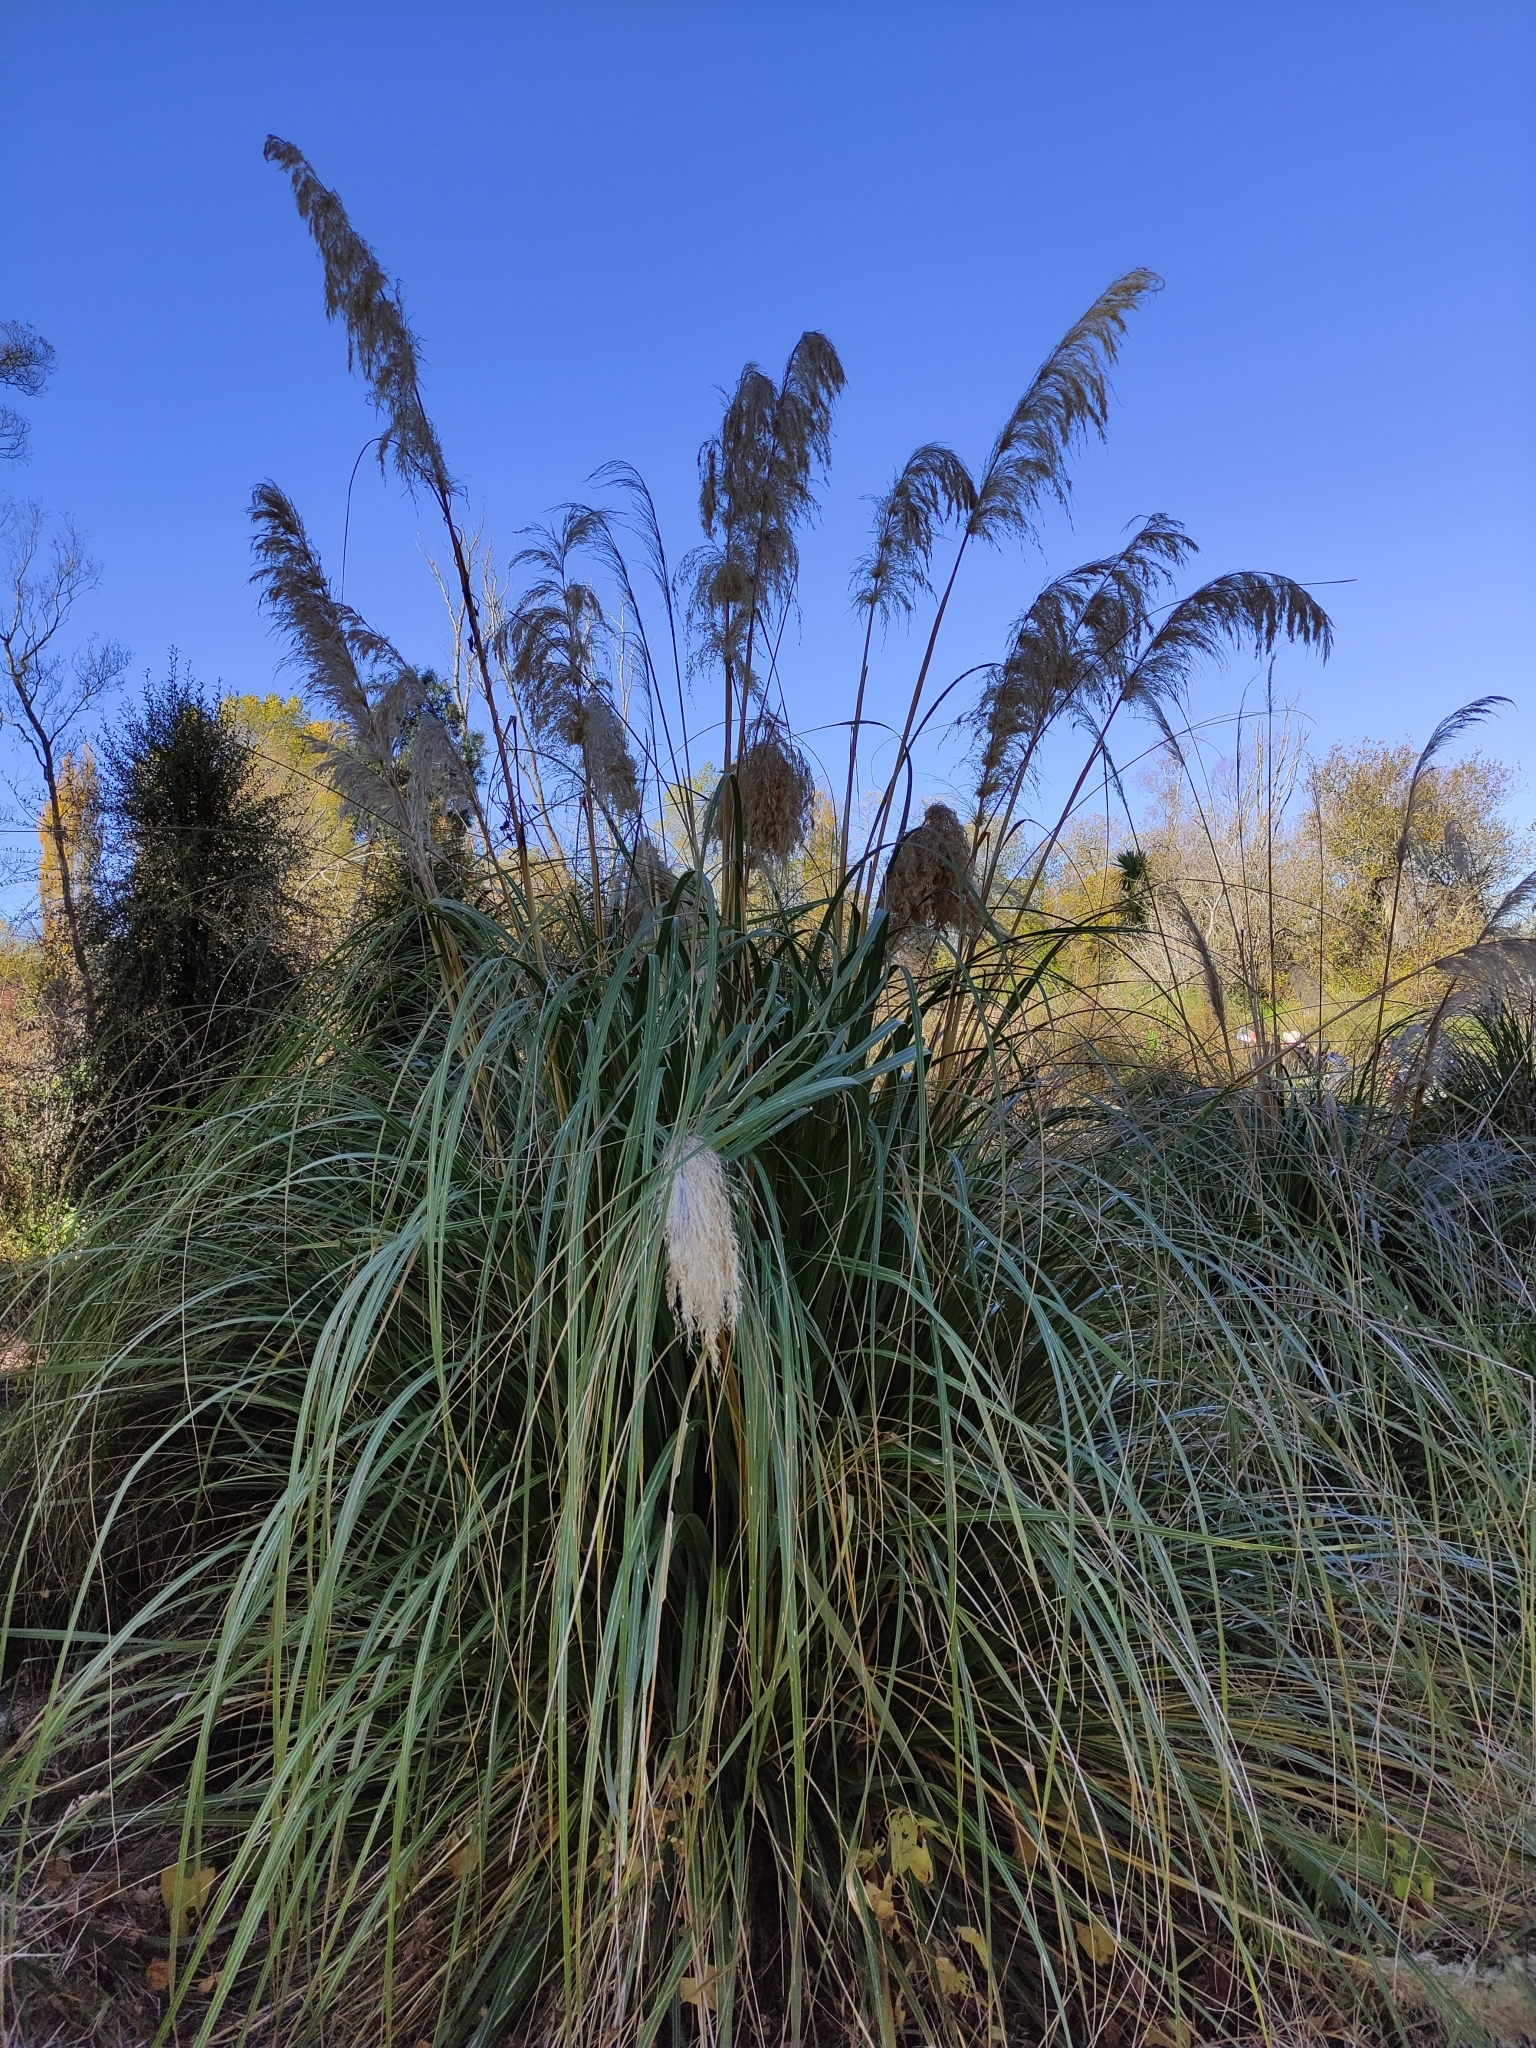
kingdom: Plantae
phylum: Tracheophyta
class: Liliopsida
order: Poales
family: Poaceae
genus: Cortaderia
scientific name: Cortaderia selloana
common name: Uruguayan pampas grass
